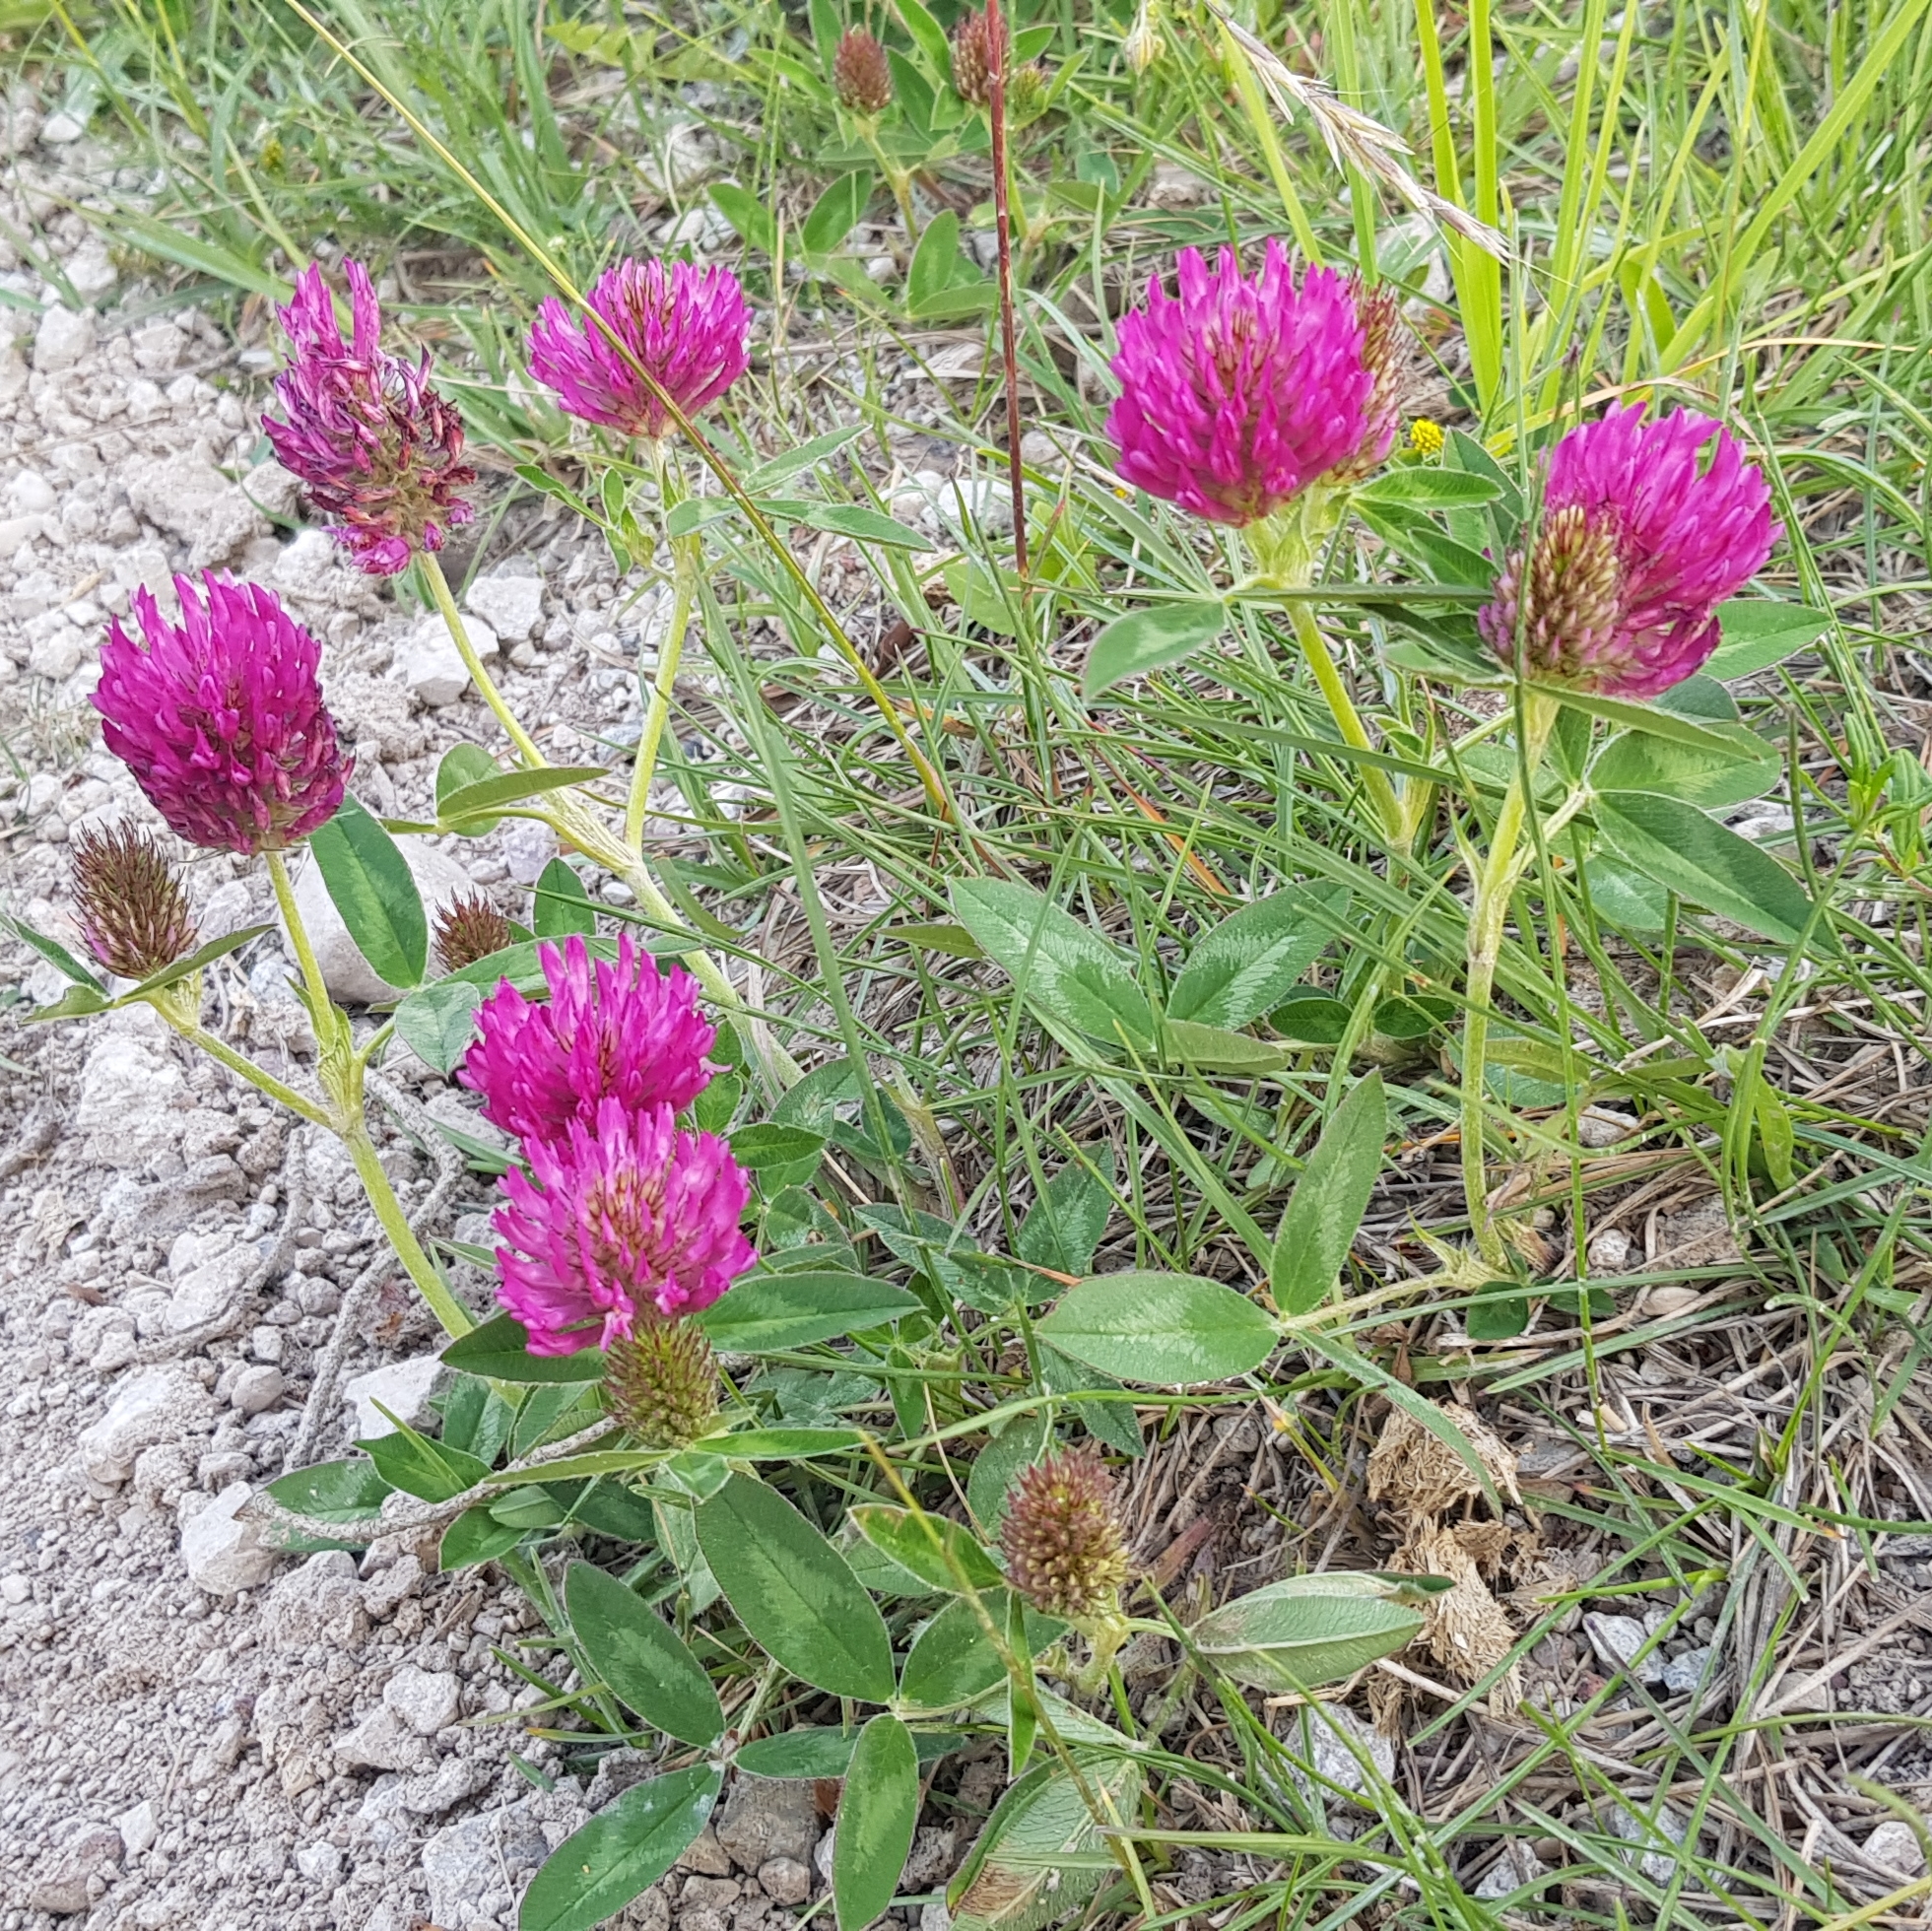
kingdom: Plantae
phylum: Tracheophyta
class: Magnoliopsida
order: Fabales
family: Fabaceae
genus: Trifolium
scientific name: Trifolium medium
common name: Zigzag clover
